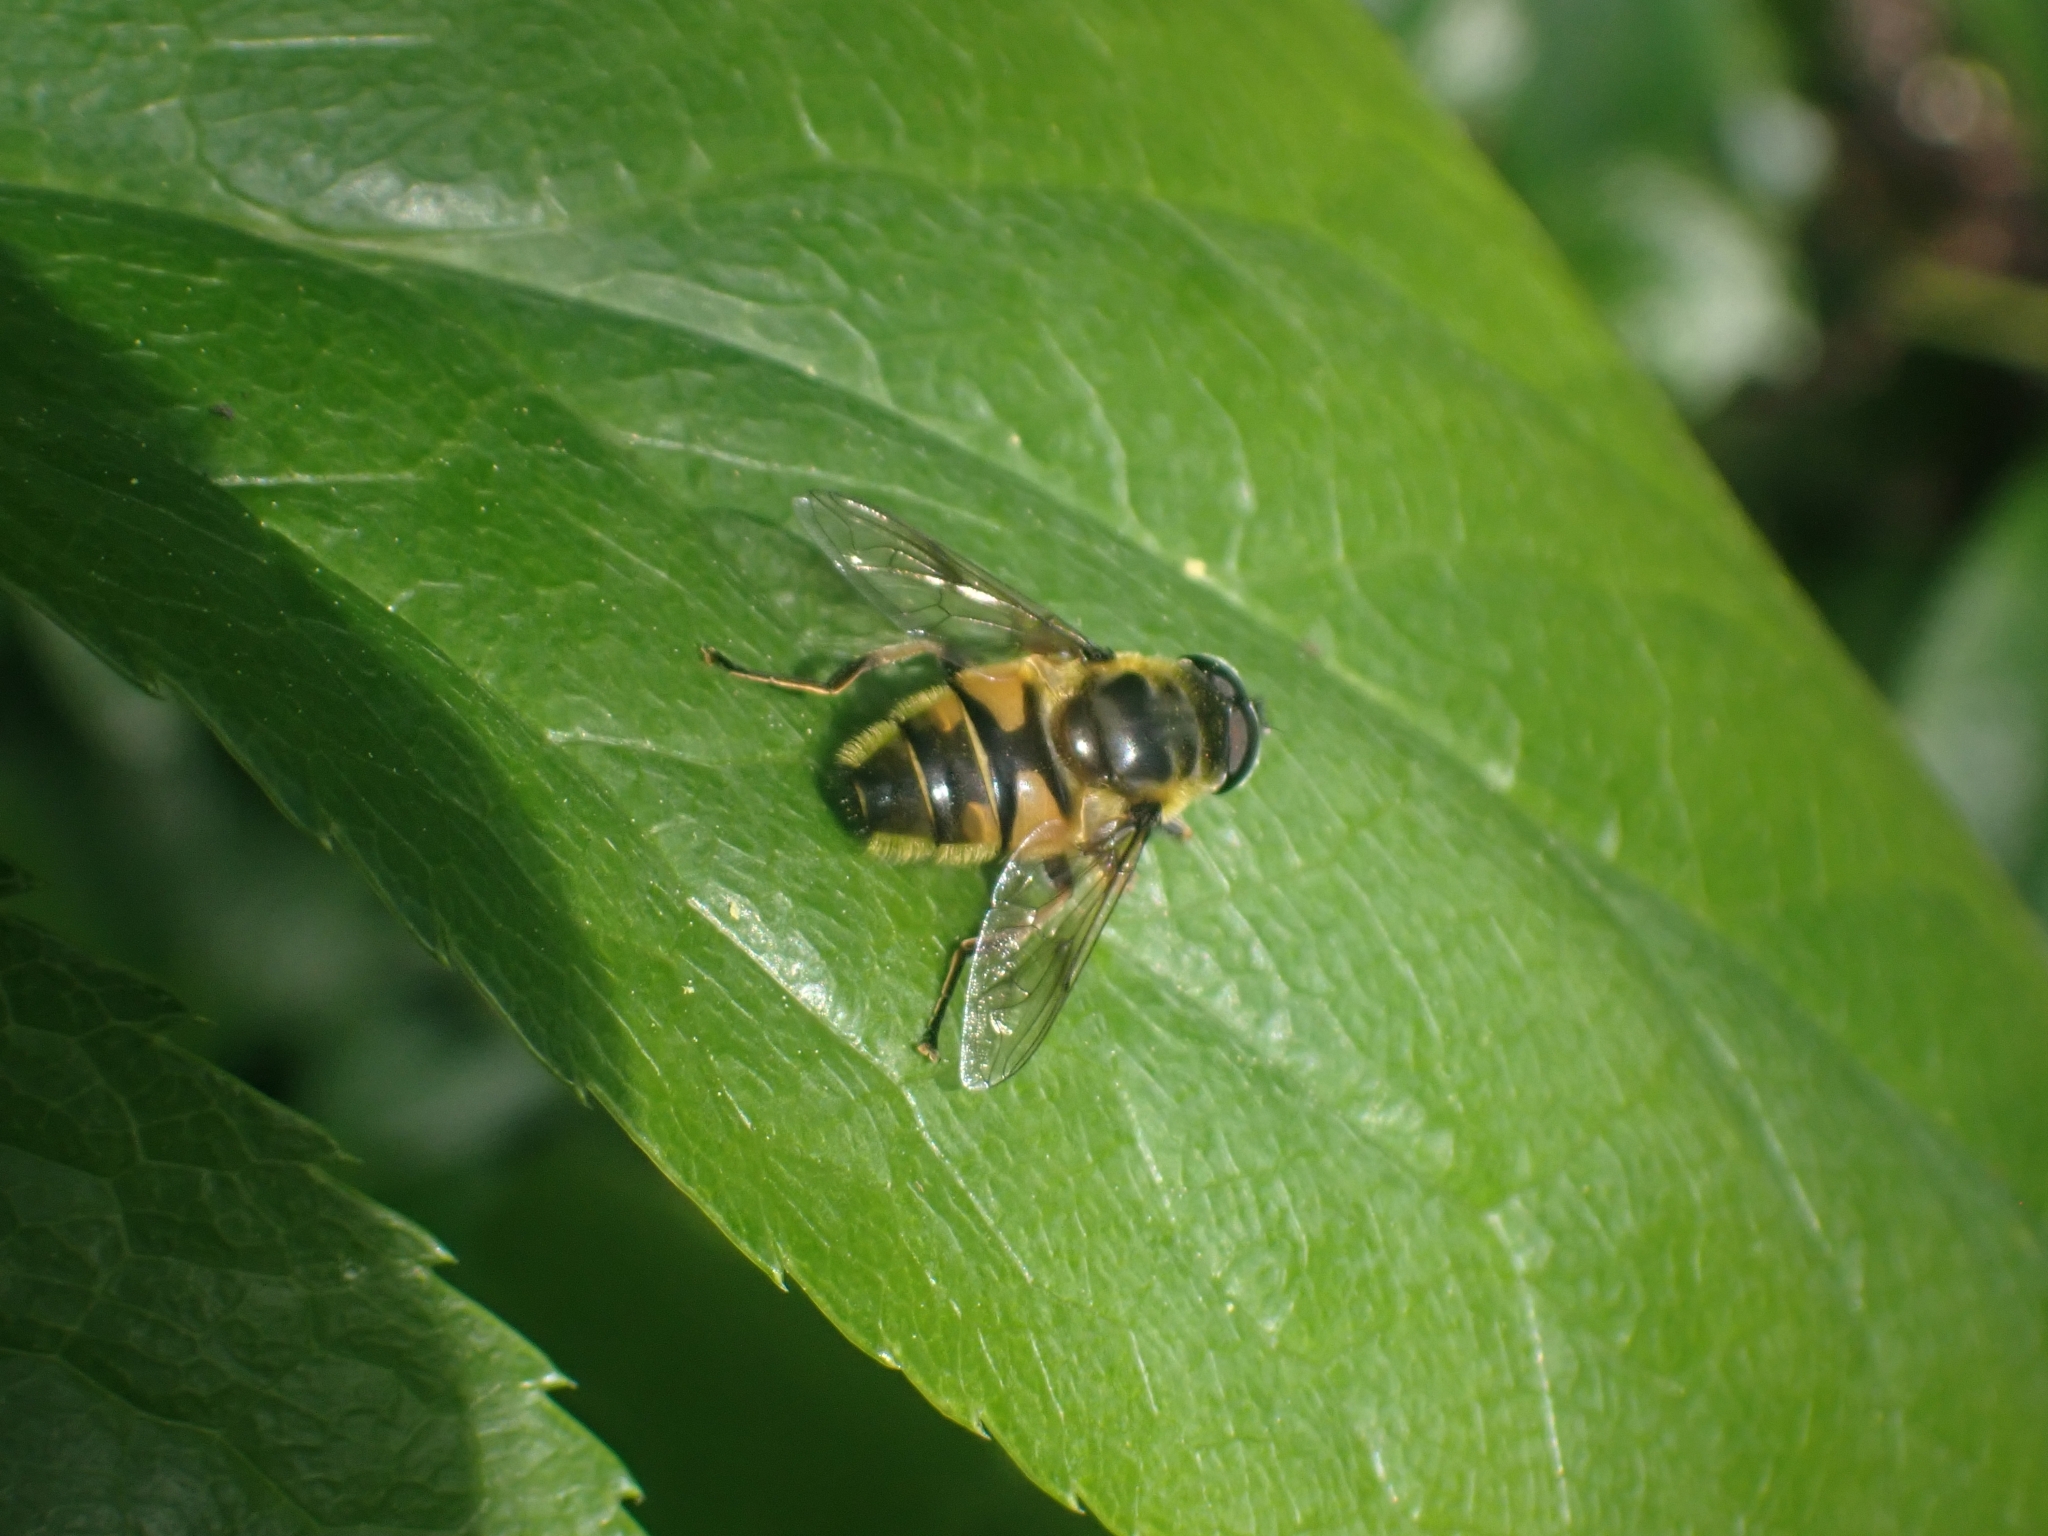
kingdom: Animalia
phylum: Arthropoda
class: Insecta
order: Diptera
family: Syrphidae
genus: Myathropa
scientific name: Myathropa florea
